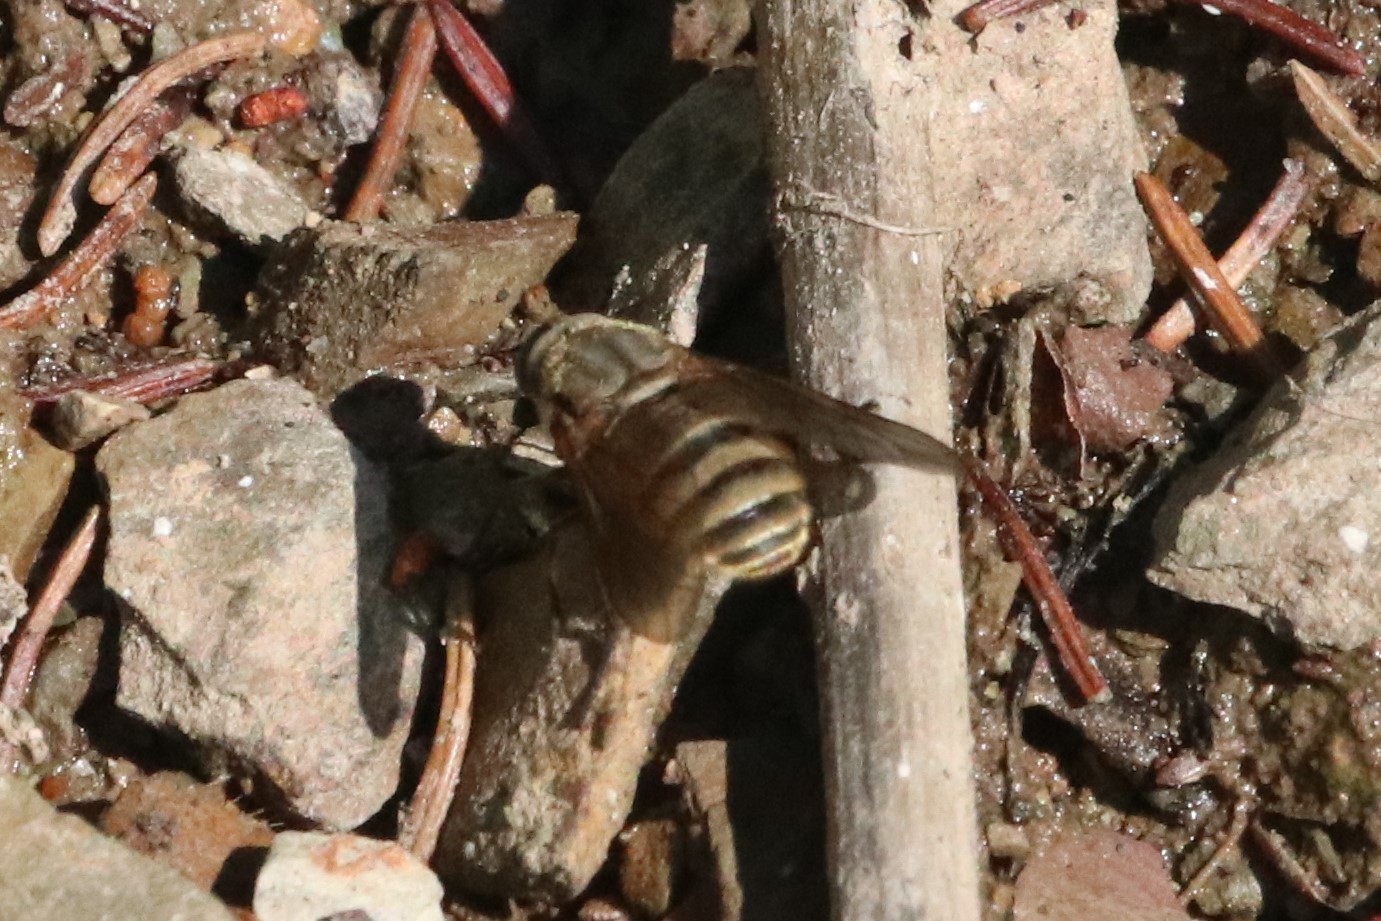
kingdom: Animalia
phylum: Arthropoda
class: Insecta
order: Diptera
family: Tabanidae
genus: Stonemyia
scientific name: Stonemyia tranquilla
